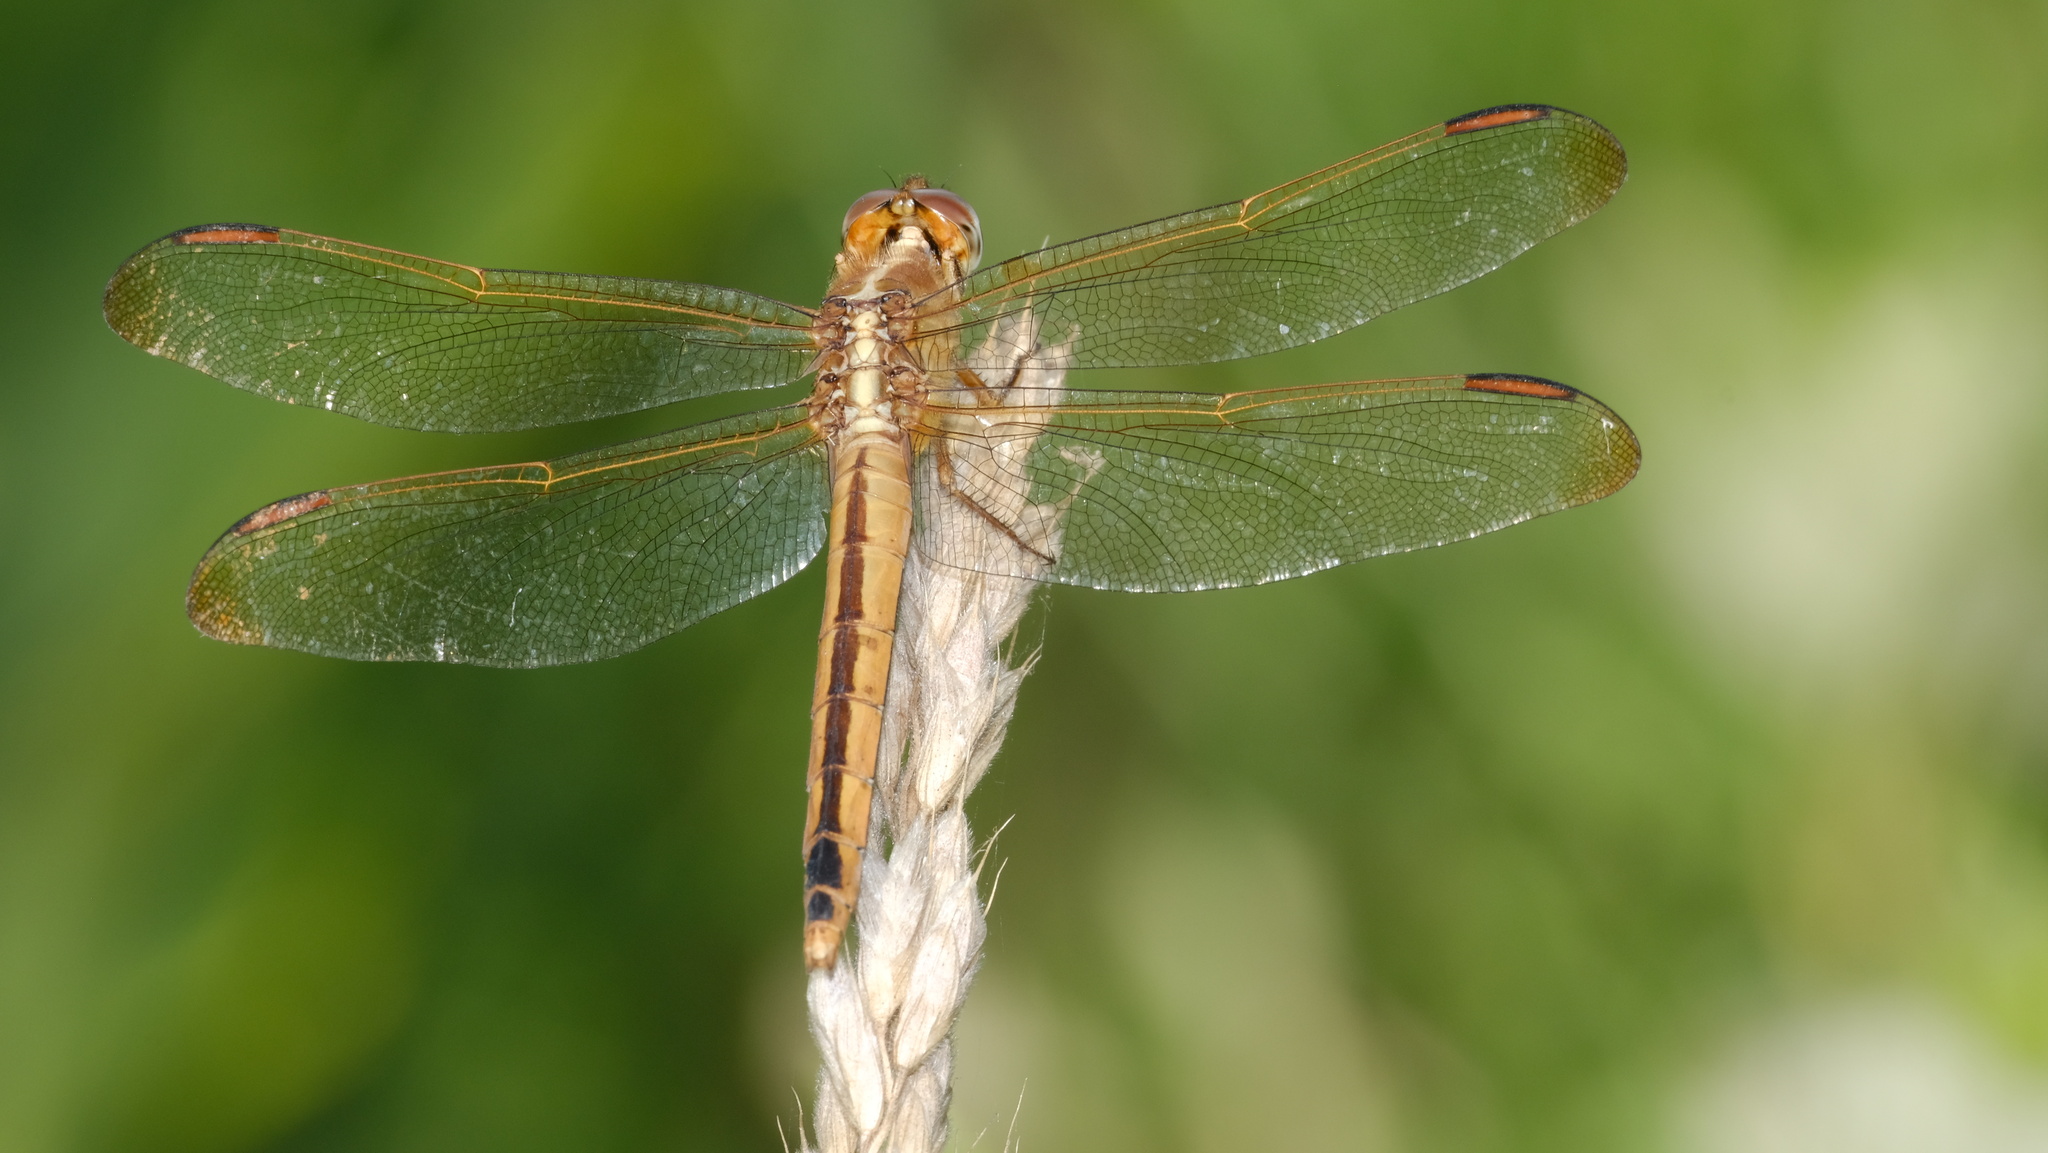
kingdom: Animalia
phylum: Arthropoda
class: Insecta
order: Odonata
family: Libellulidae
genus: Libellula
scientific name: Libellula needhami
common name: Needham's skimmer
